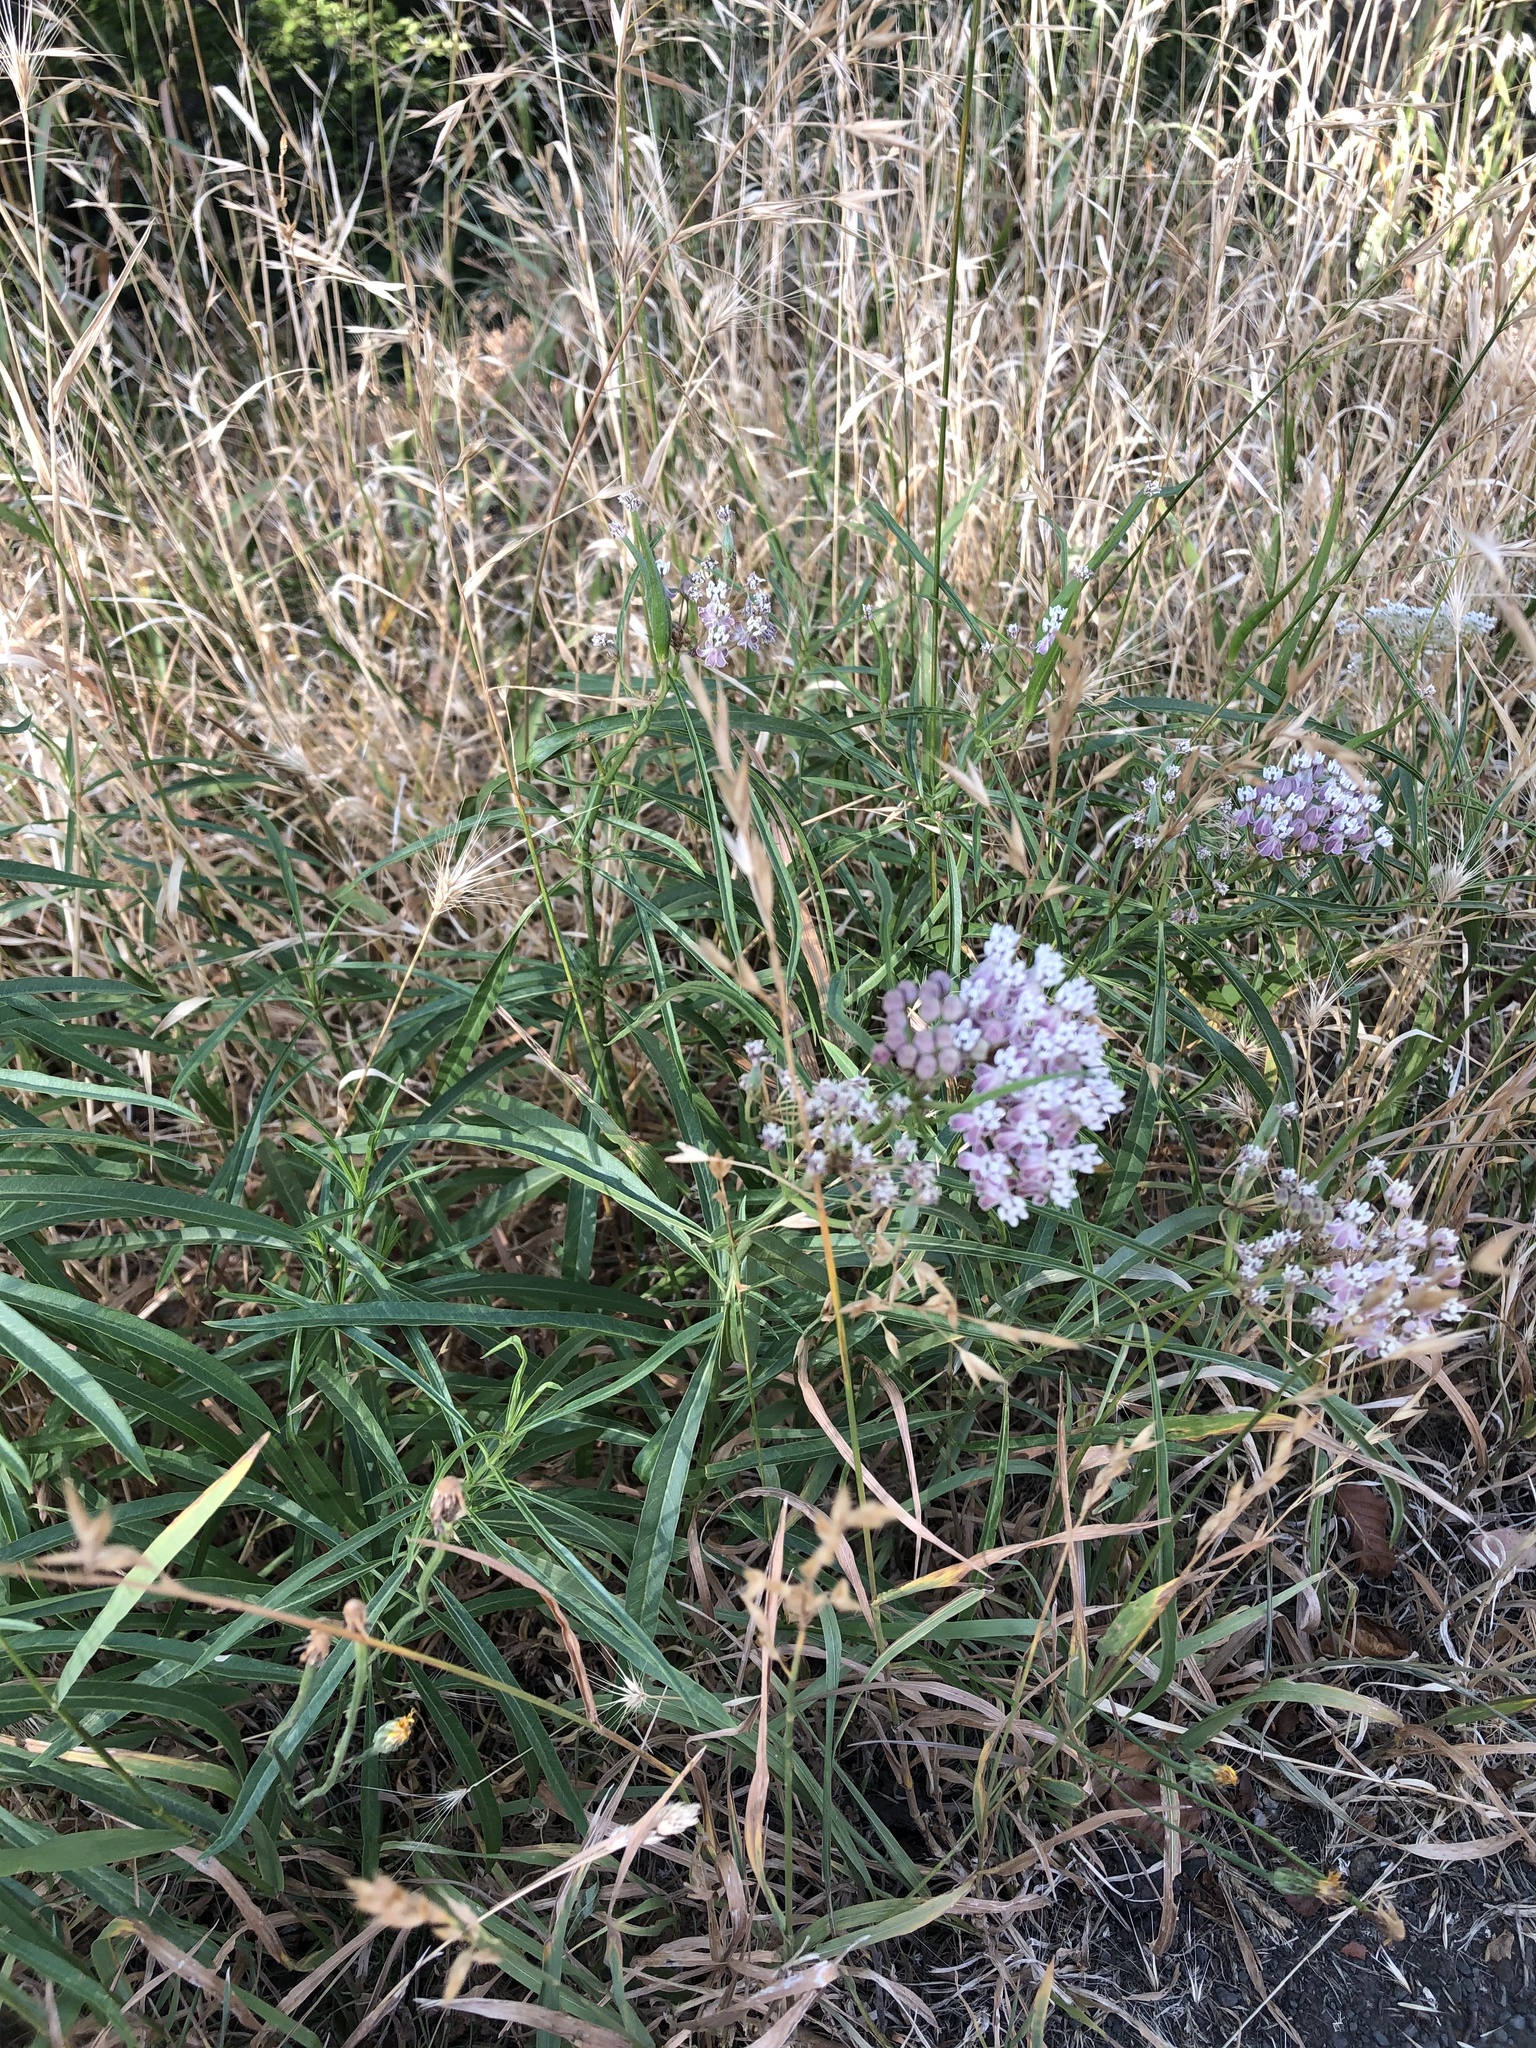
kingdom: Plantae
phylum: Tracheophyta
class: Magnoliopsida
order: Gentianales
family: Apocynaceae
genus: Asclepias
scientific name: Asclepias fascicularis
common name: Mexican milkweed
